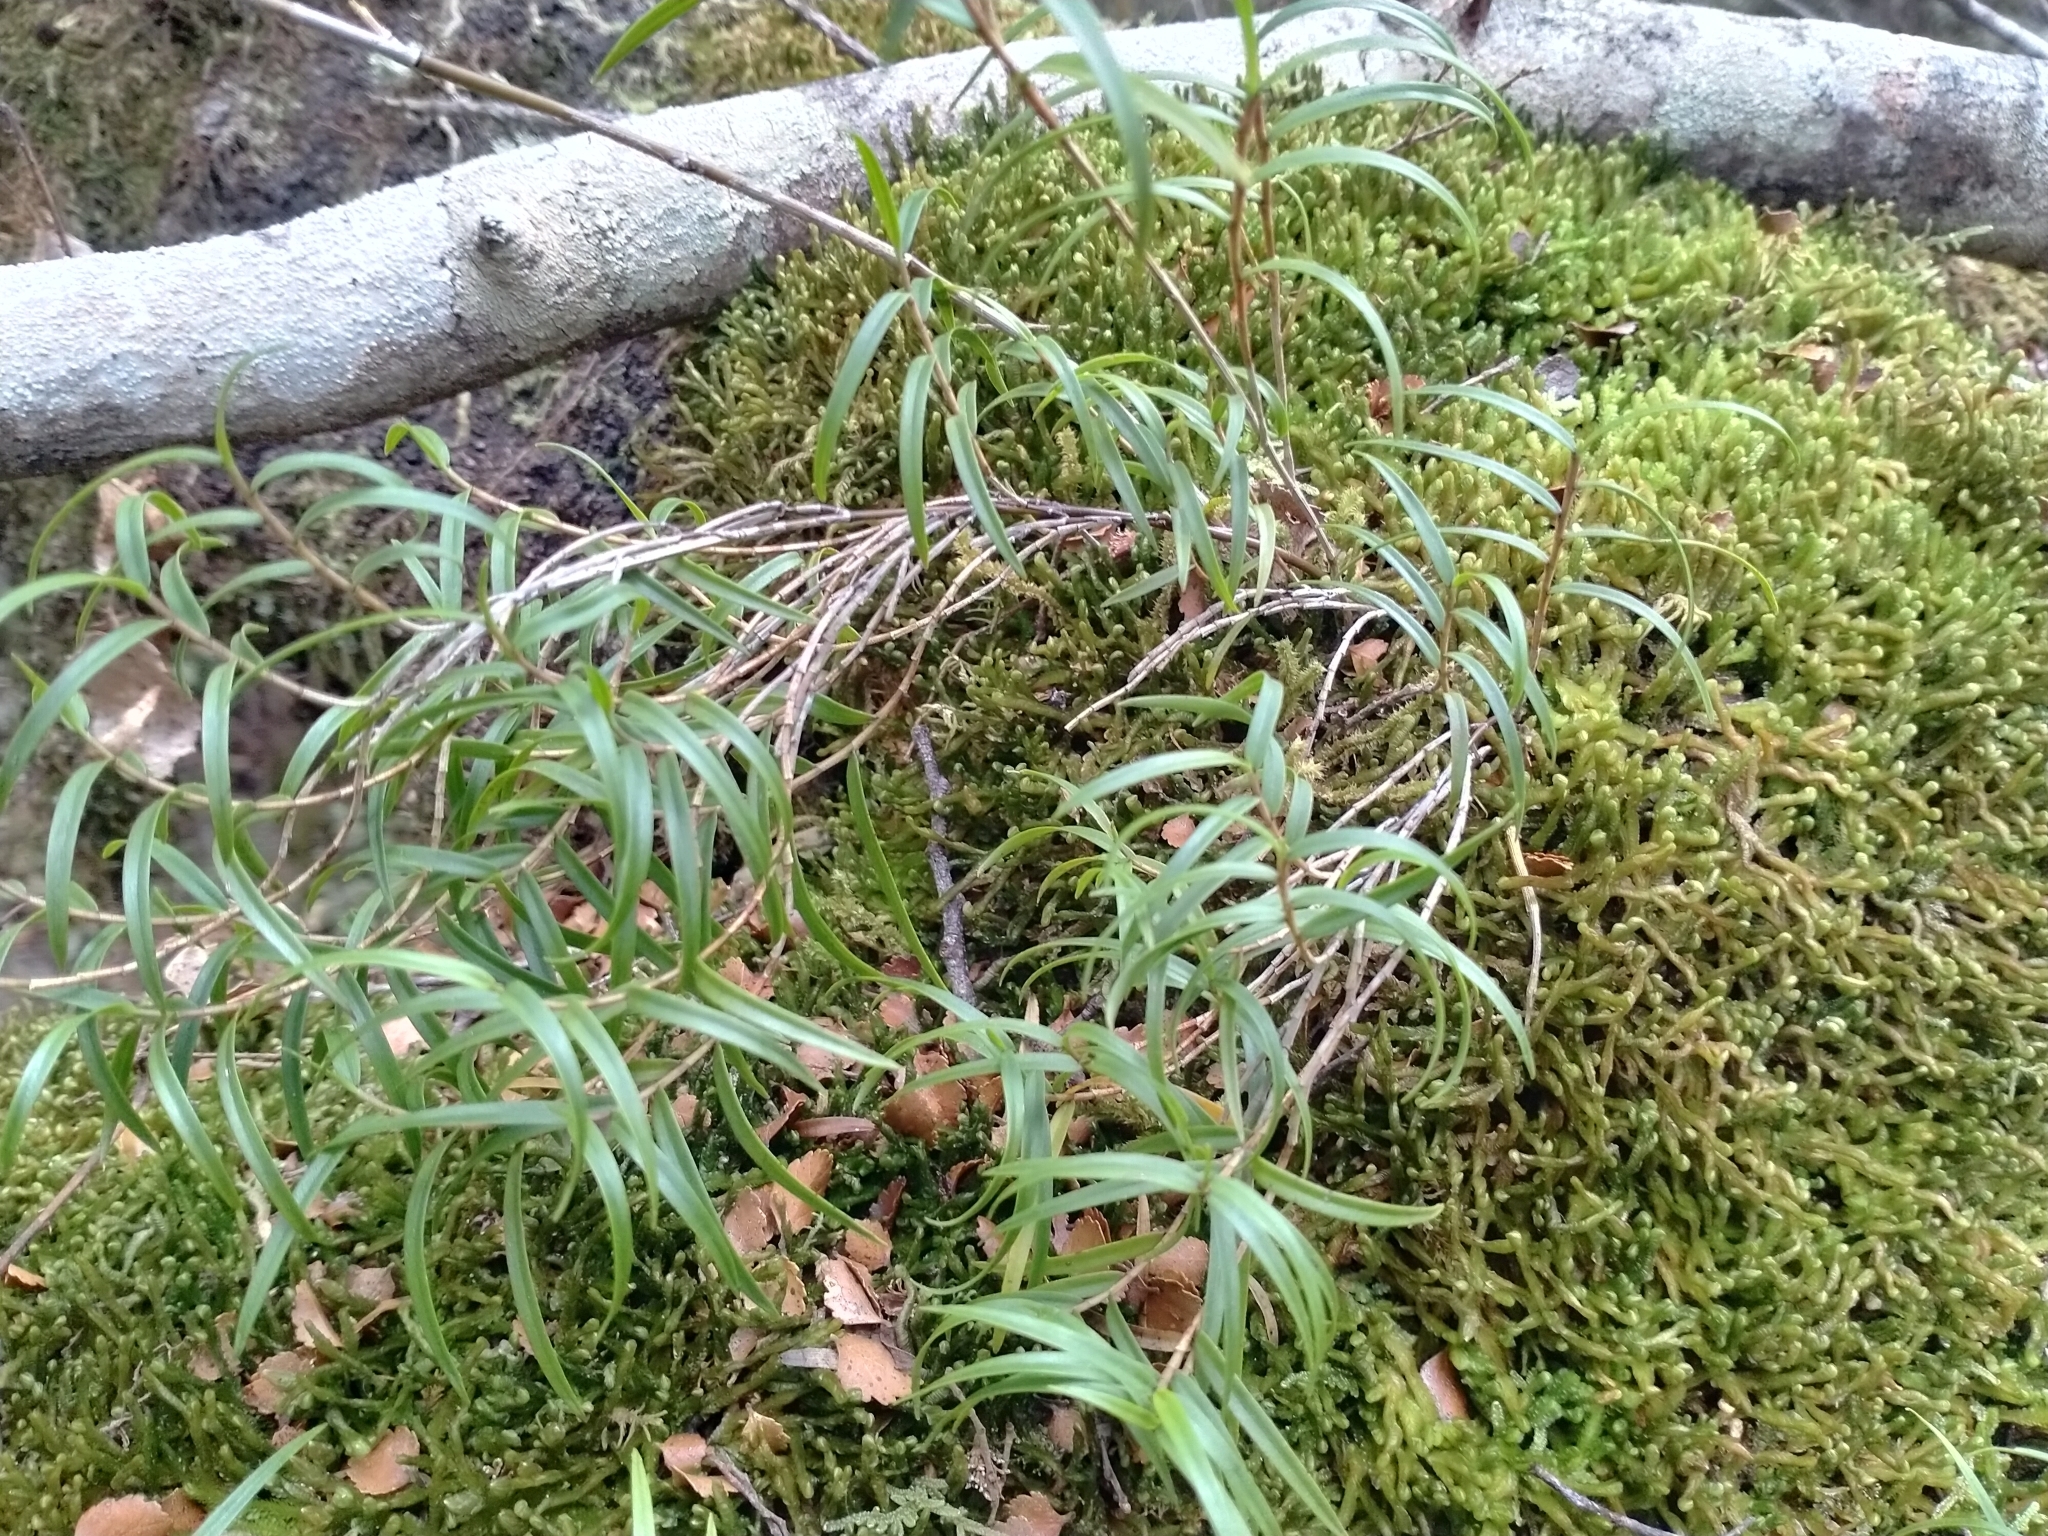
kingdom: Plantae
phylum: Tracheophyta
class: Liliopsida
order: Asparagales
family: Orchidaceae
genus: Dendrobium
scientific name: Dendrobium cunninghamii
